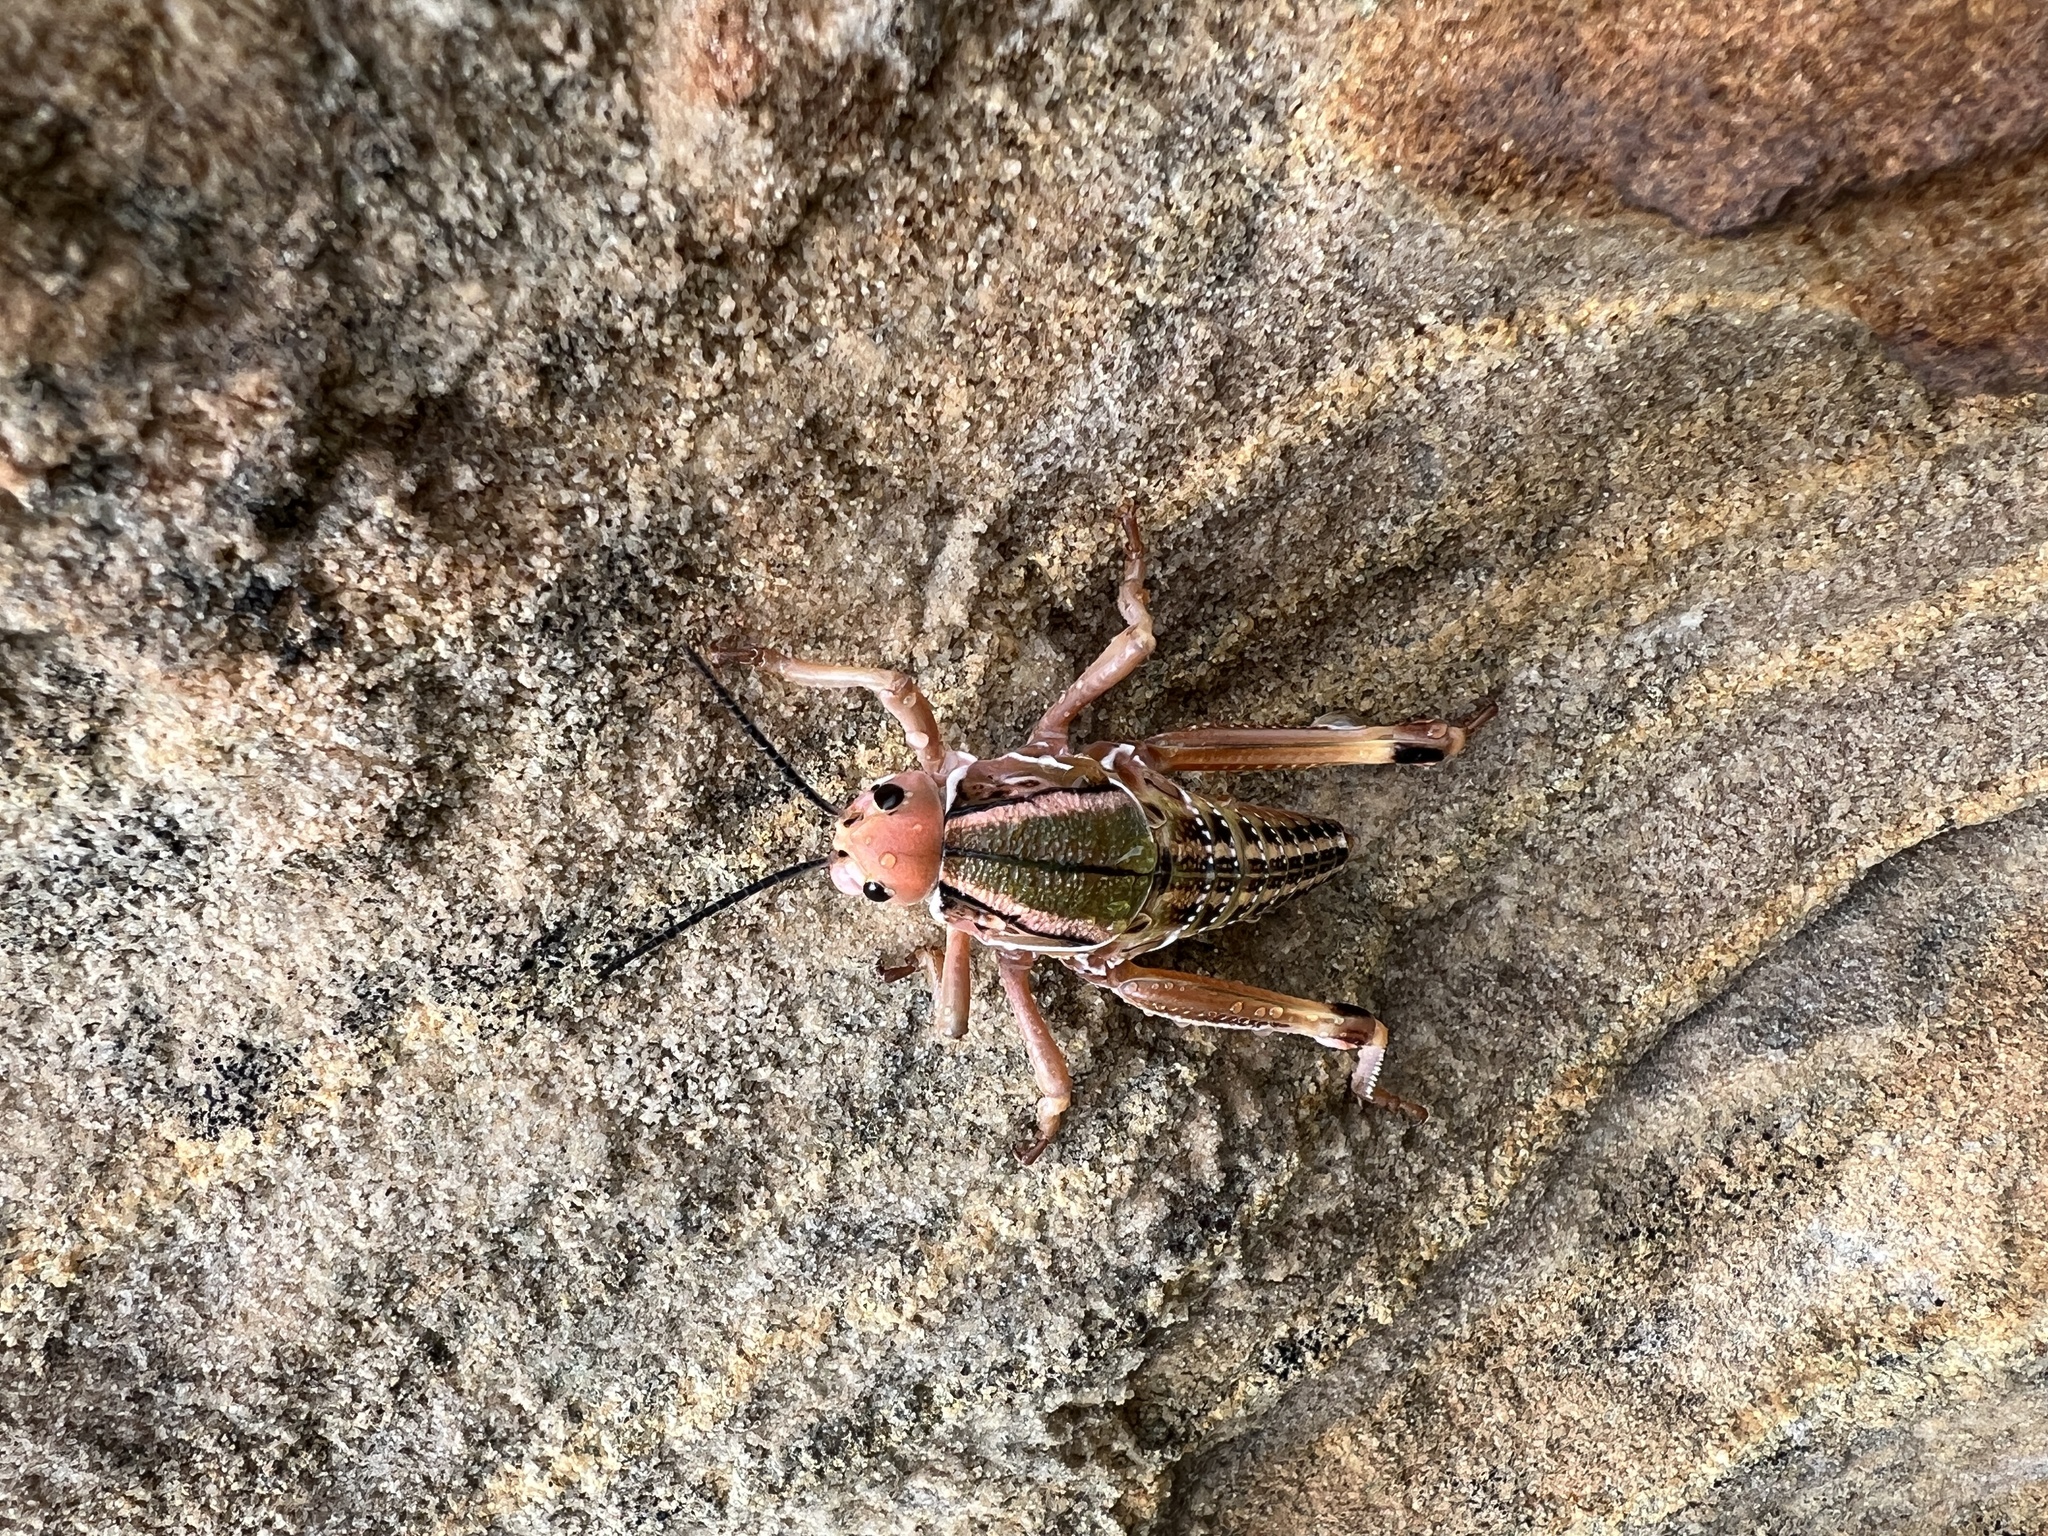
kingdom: Animalia
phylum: Arthropoda
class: Insecta
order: Orthoptera
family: Romaleidae
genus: Brachystola
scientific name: Brachystola magna
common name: Plains lubber grasshopper
